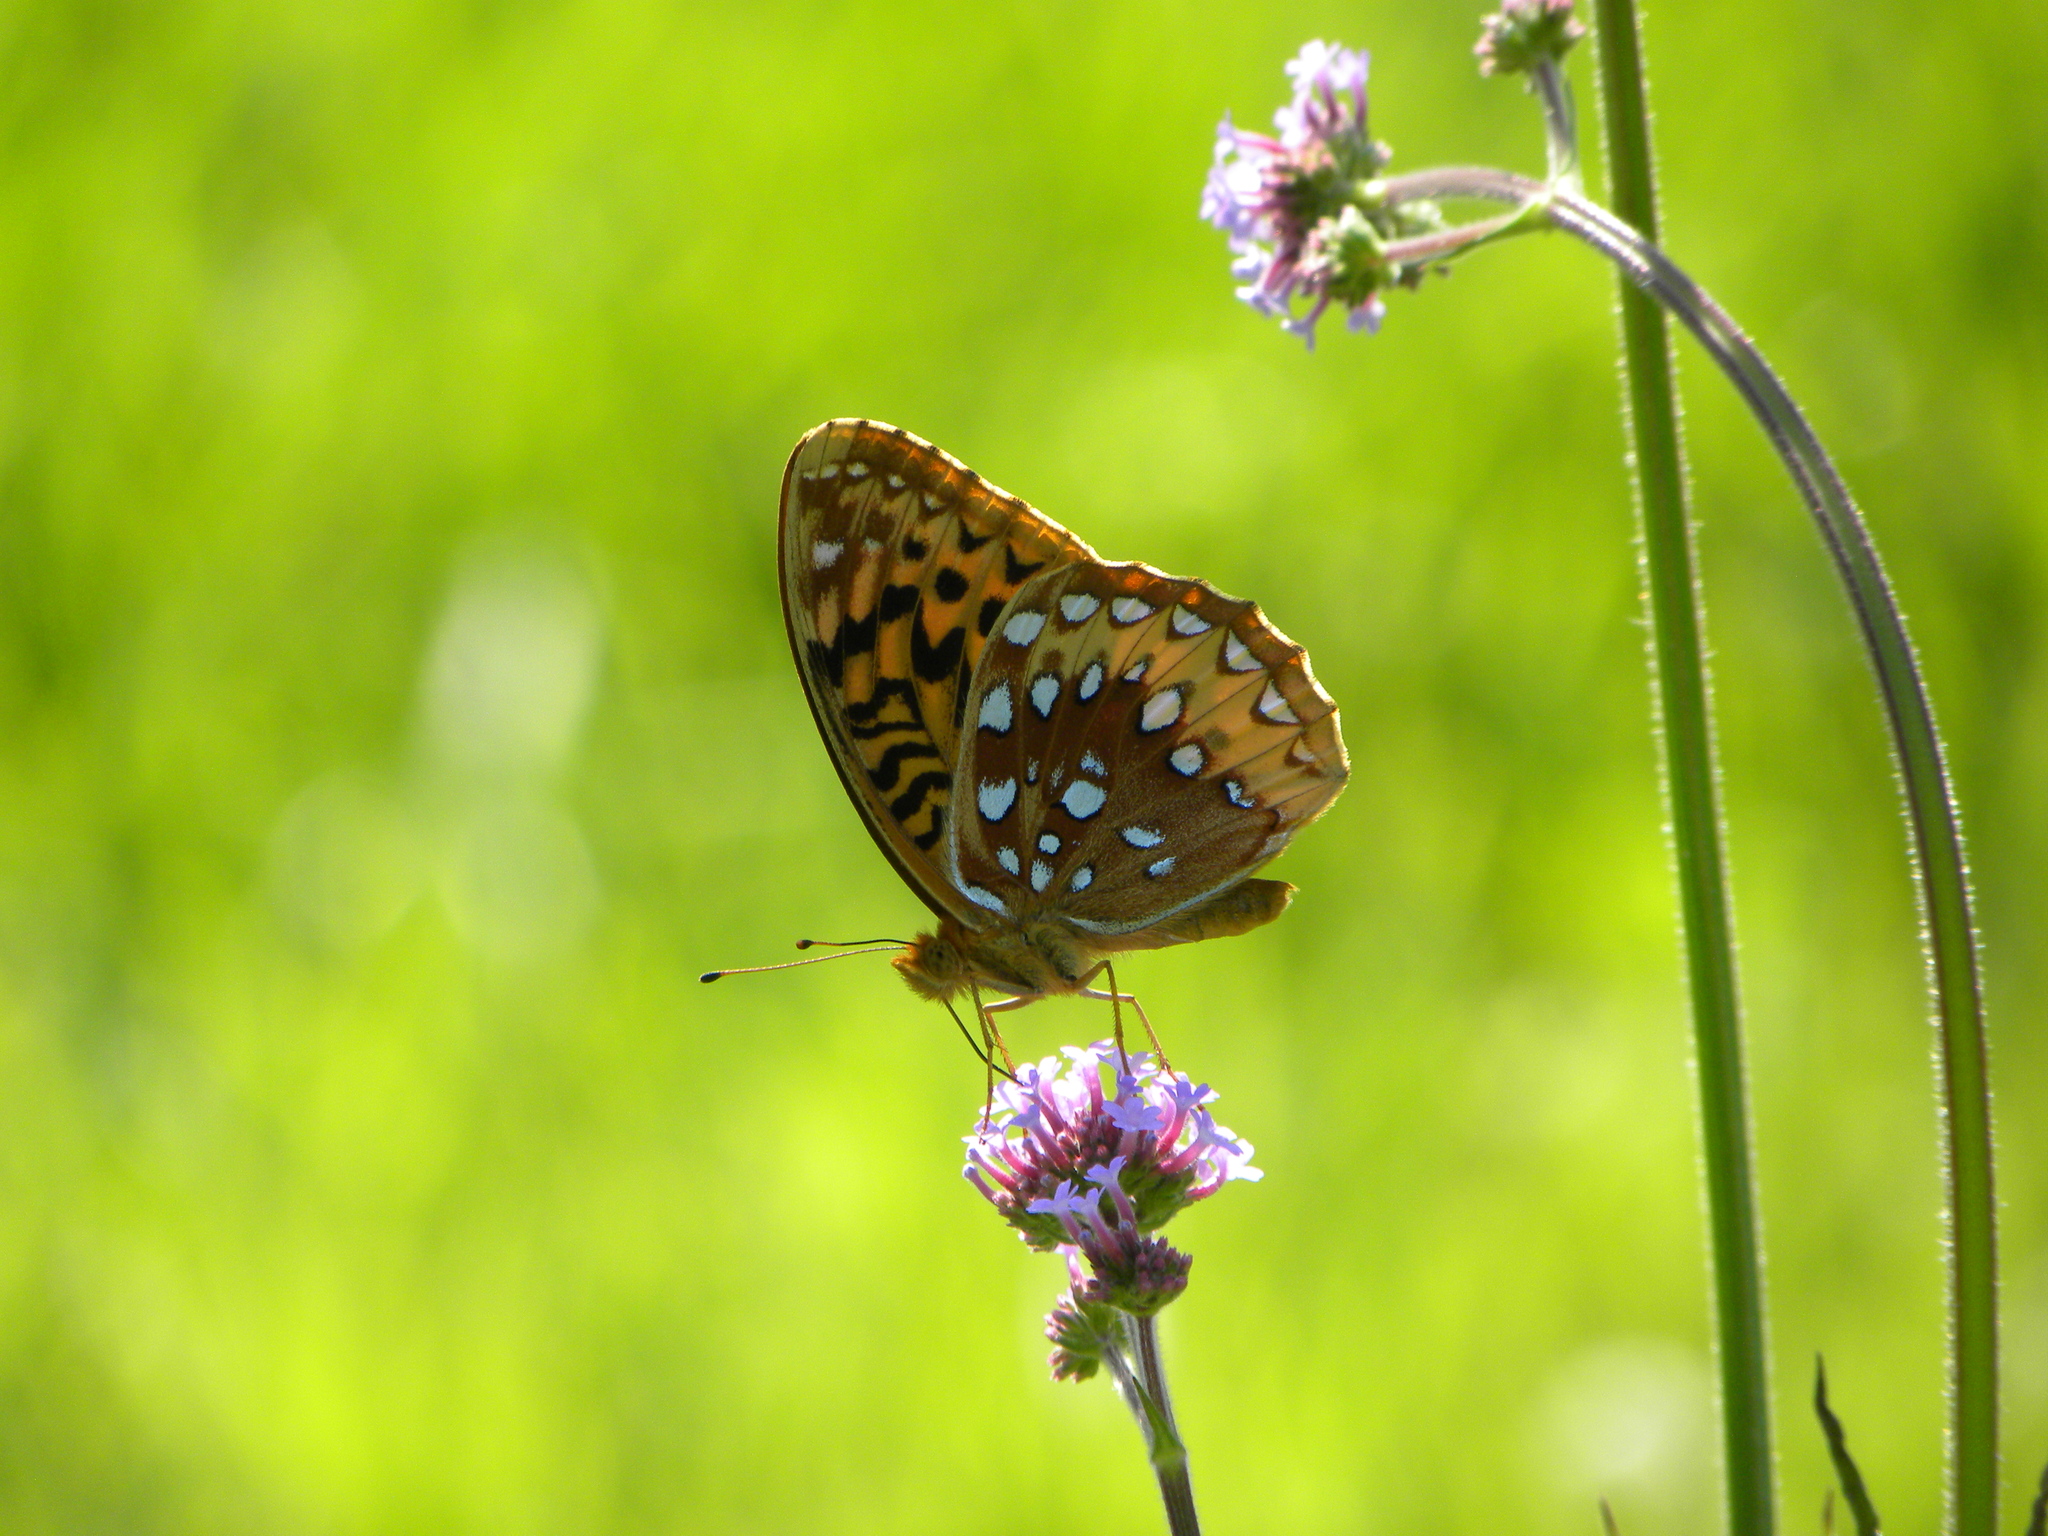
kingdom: Animalia
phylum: Arthropoda
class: Insecta
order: Lepidoptera
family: Nymphalidae
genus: Speyeria
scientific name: Speyeria cybele
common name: Great spangled fritillary
